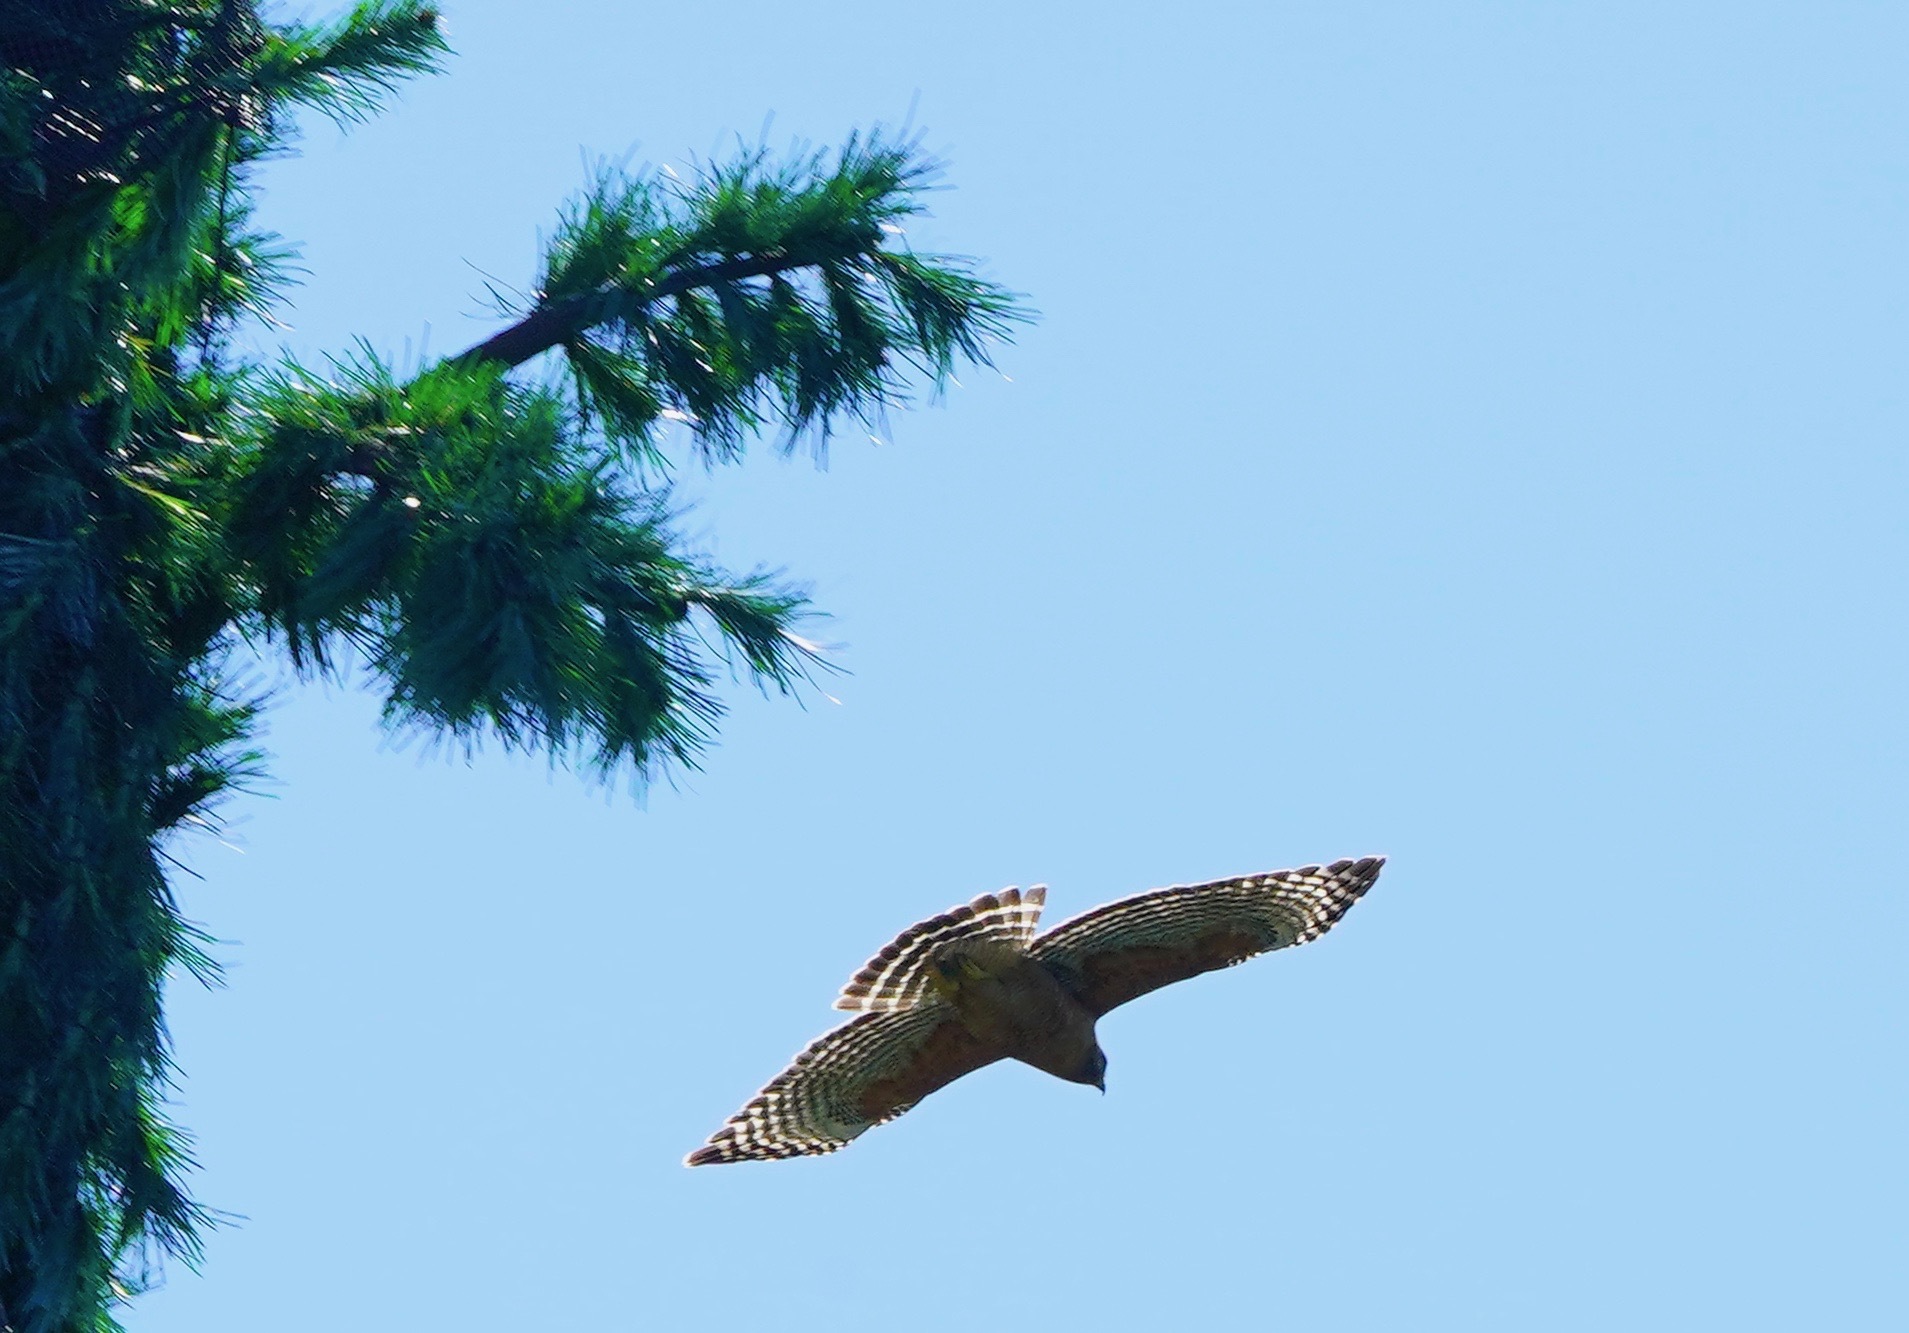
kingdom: Animalia
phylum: Chordata
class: Aves
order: Accipitriformes
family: Accipitridae
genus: Buteo
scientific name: Buteo lineatus
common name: Red-shouldered hawk
